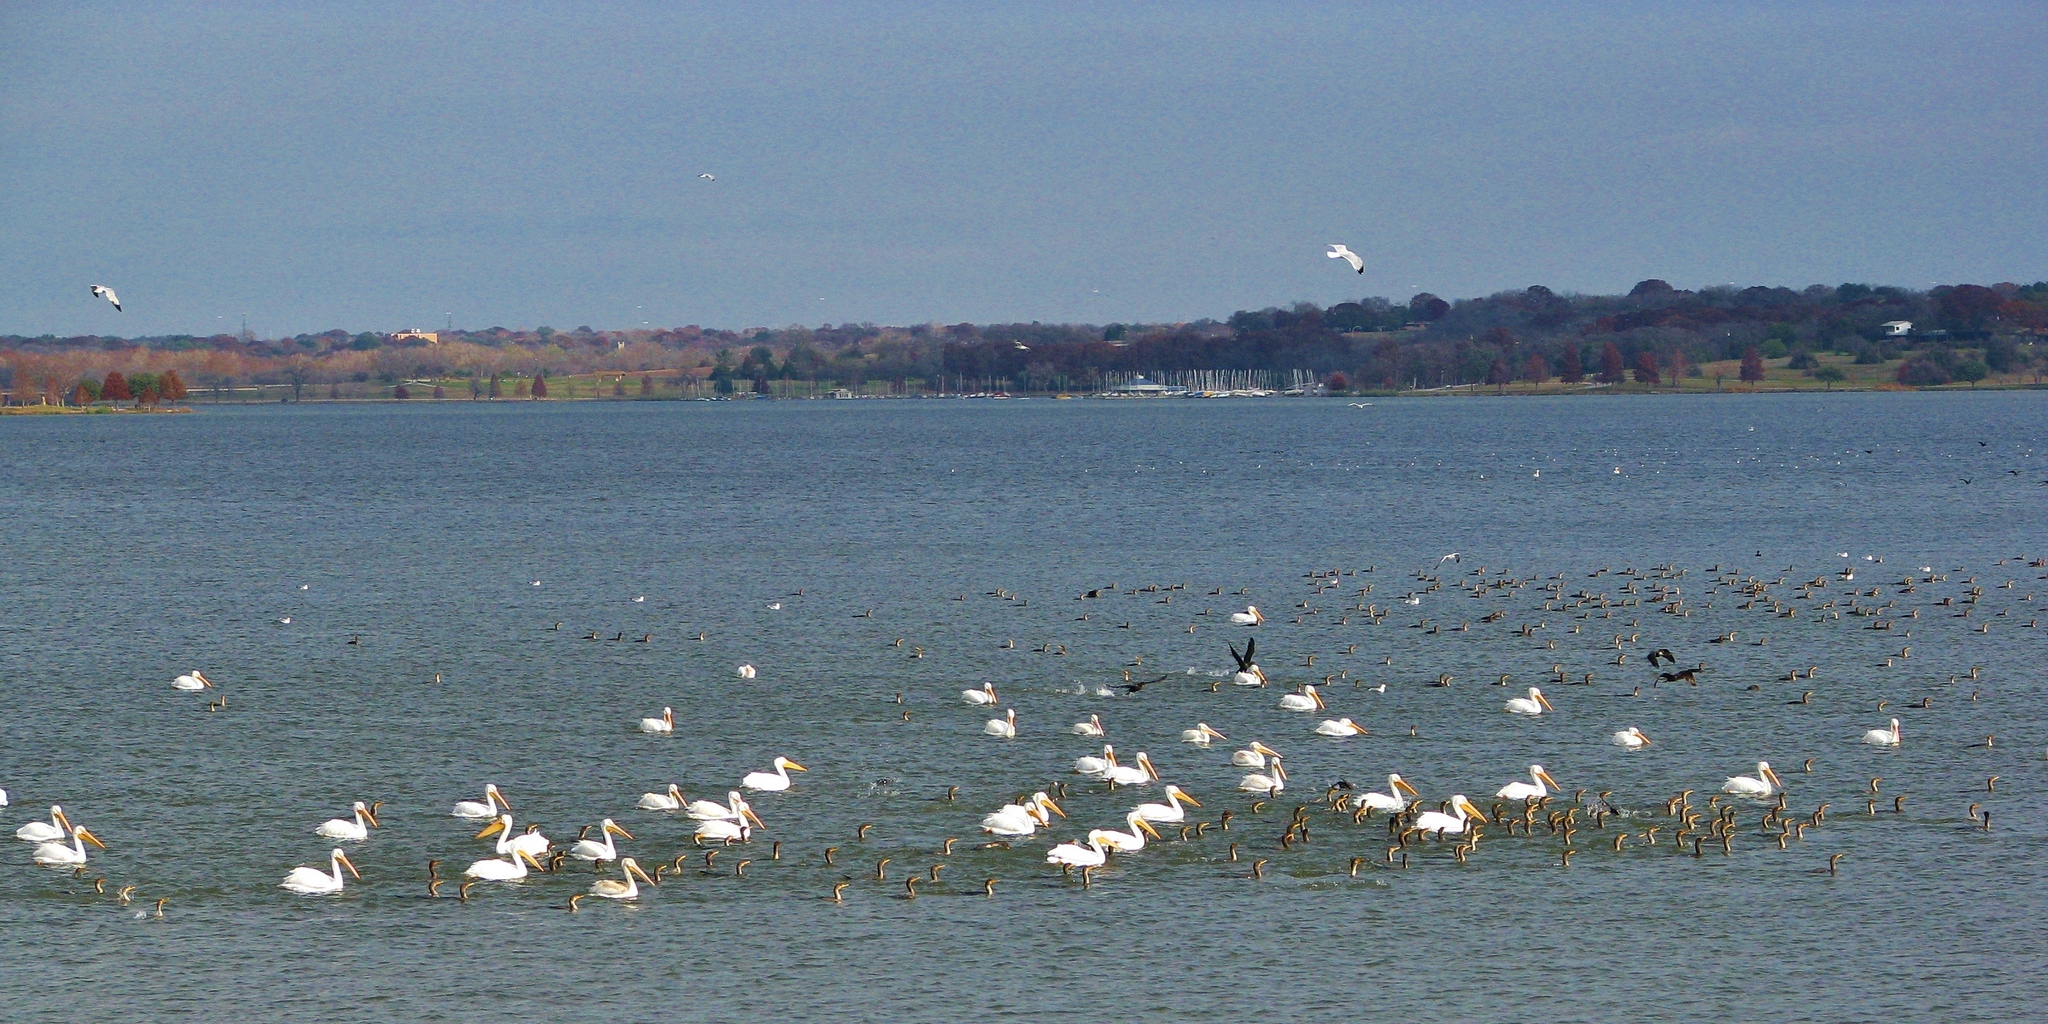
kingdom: Animalia
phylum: Chordata
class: Aves
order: Pelecaniformes
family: Pelecanidae
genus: Pelecanus
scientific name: Pelecanus erythrorhynchos
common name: American white pelican
